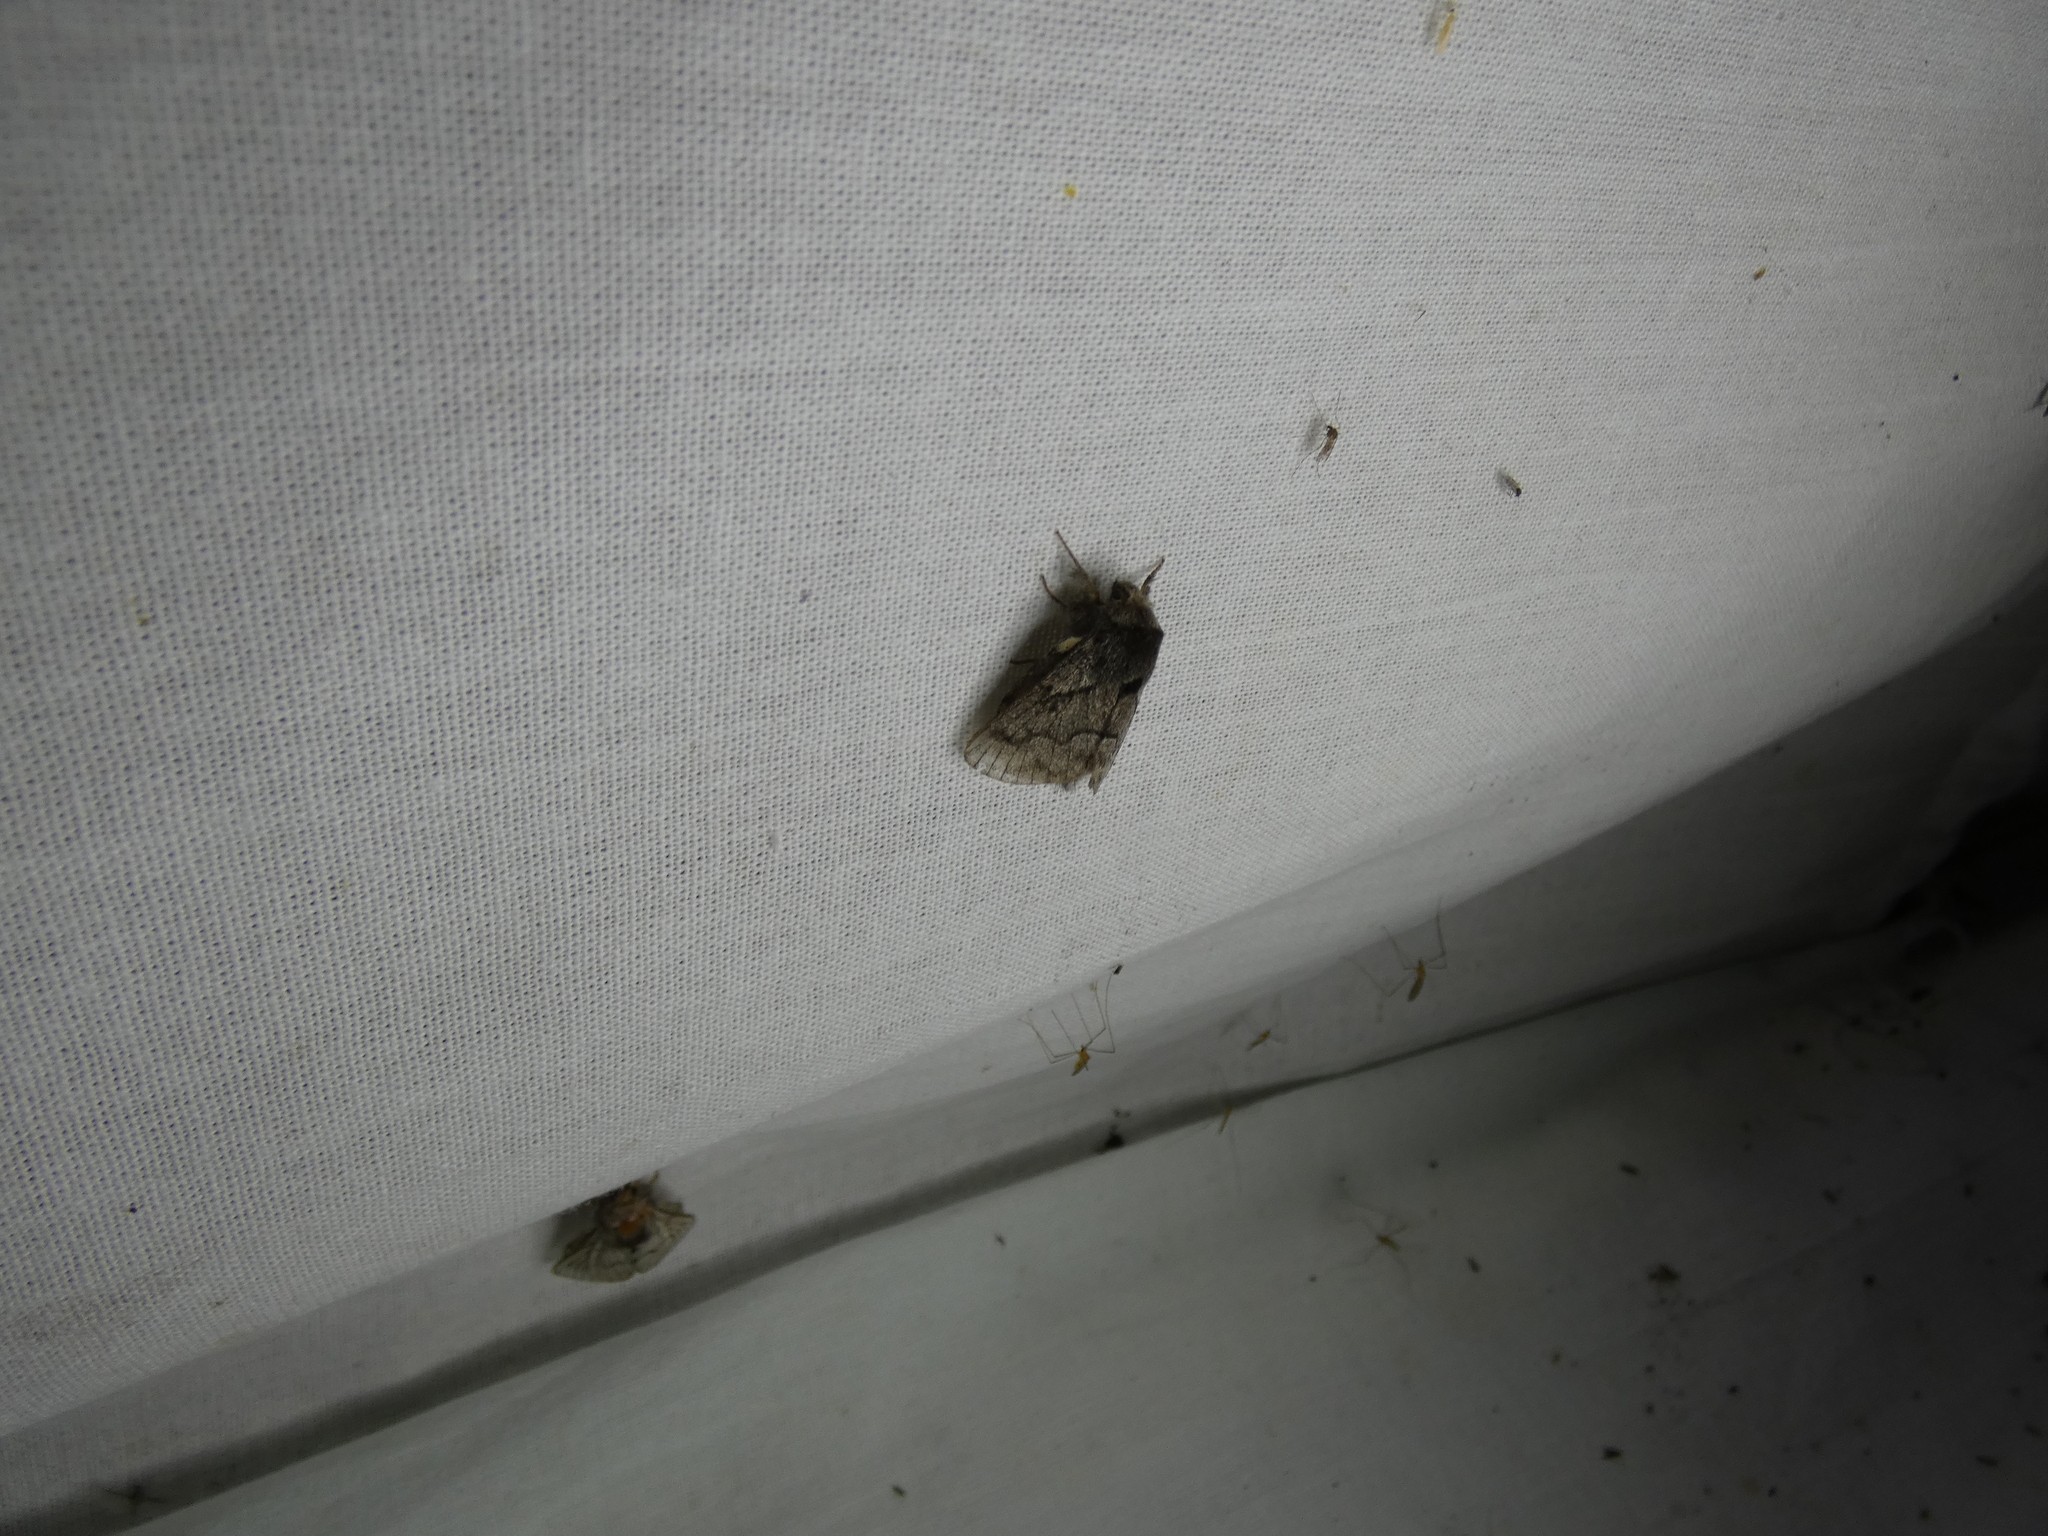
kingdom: Animalia
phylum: Arthropoda
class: Insecta
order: Lepidoptera
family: Lasiocampidae
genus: Trichiura
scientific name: Trichiura crataegi
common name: Pale eggar
